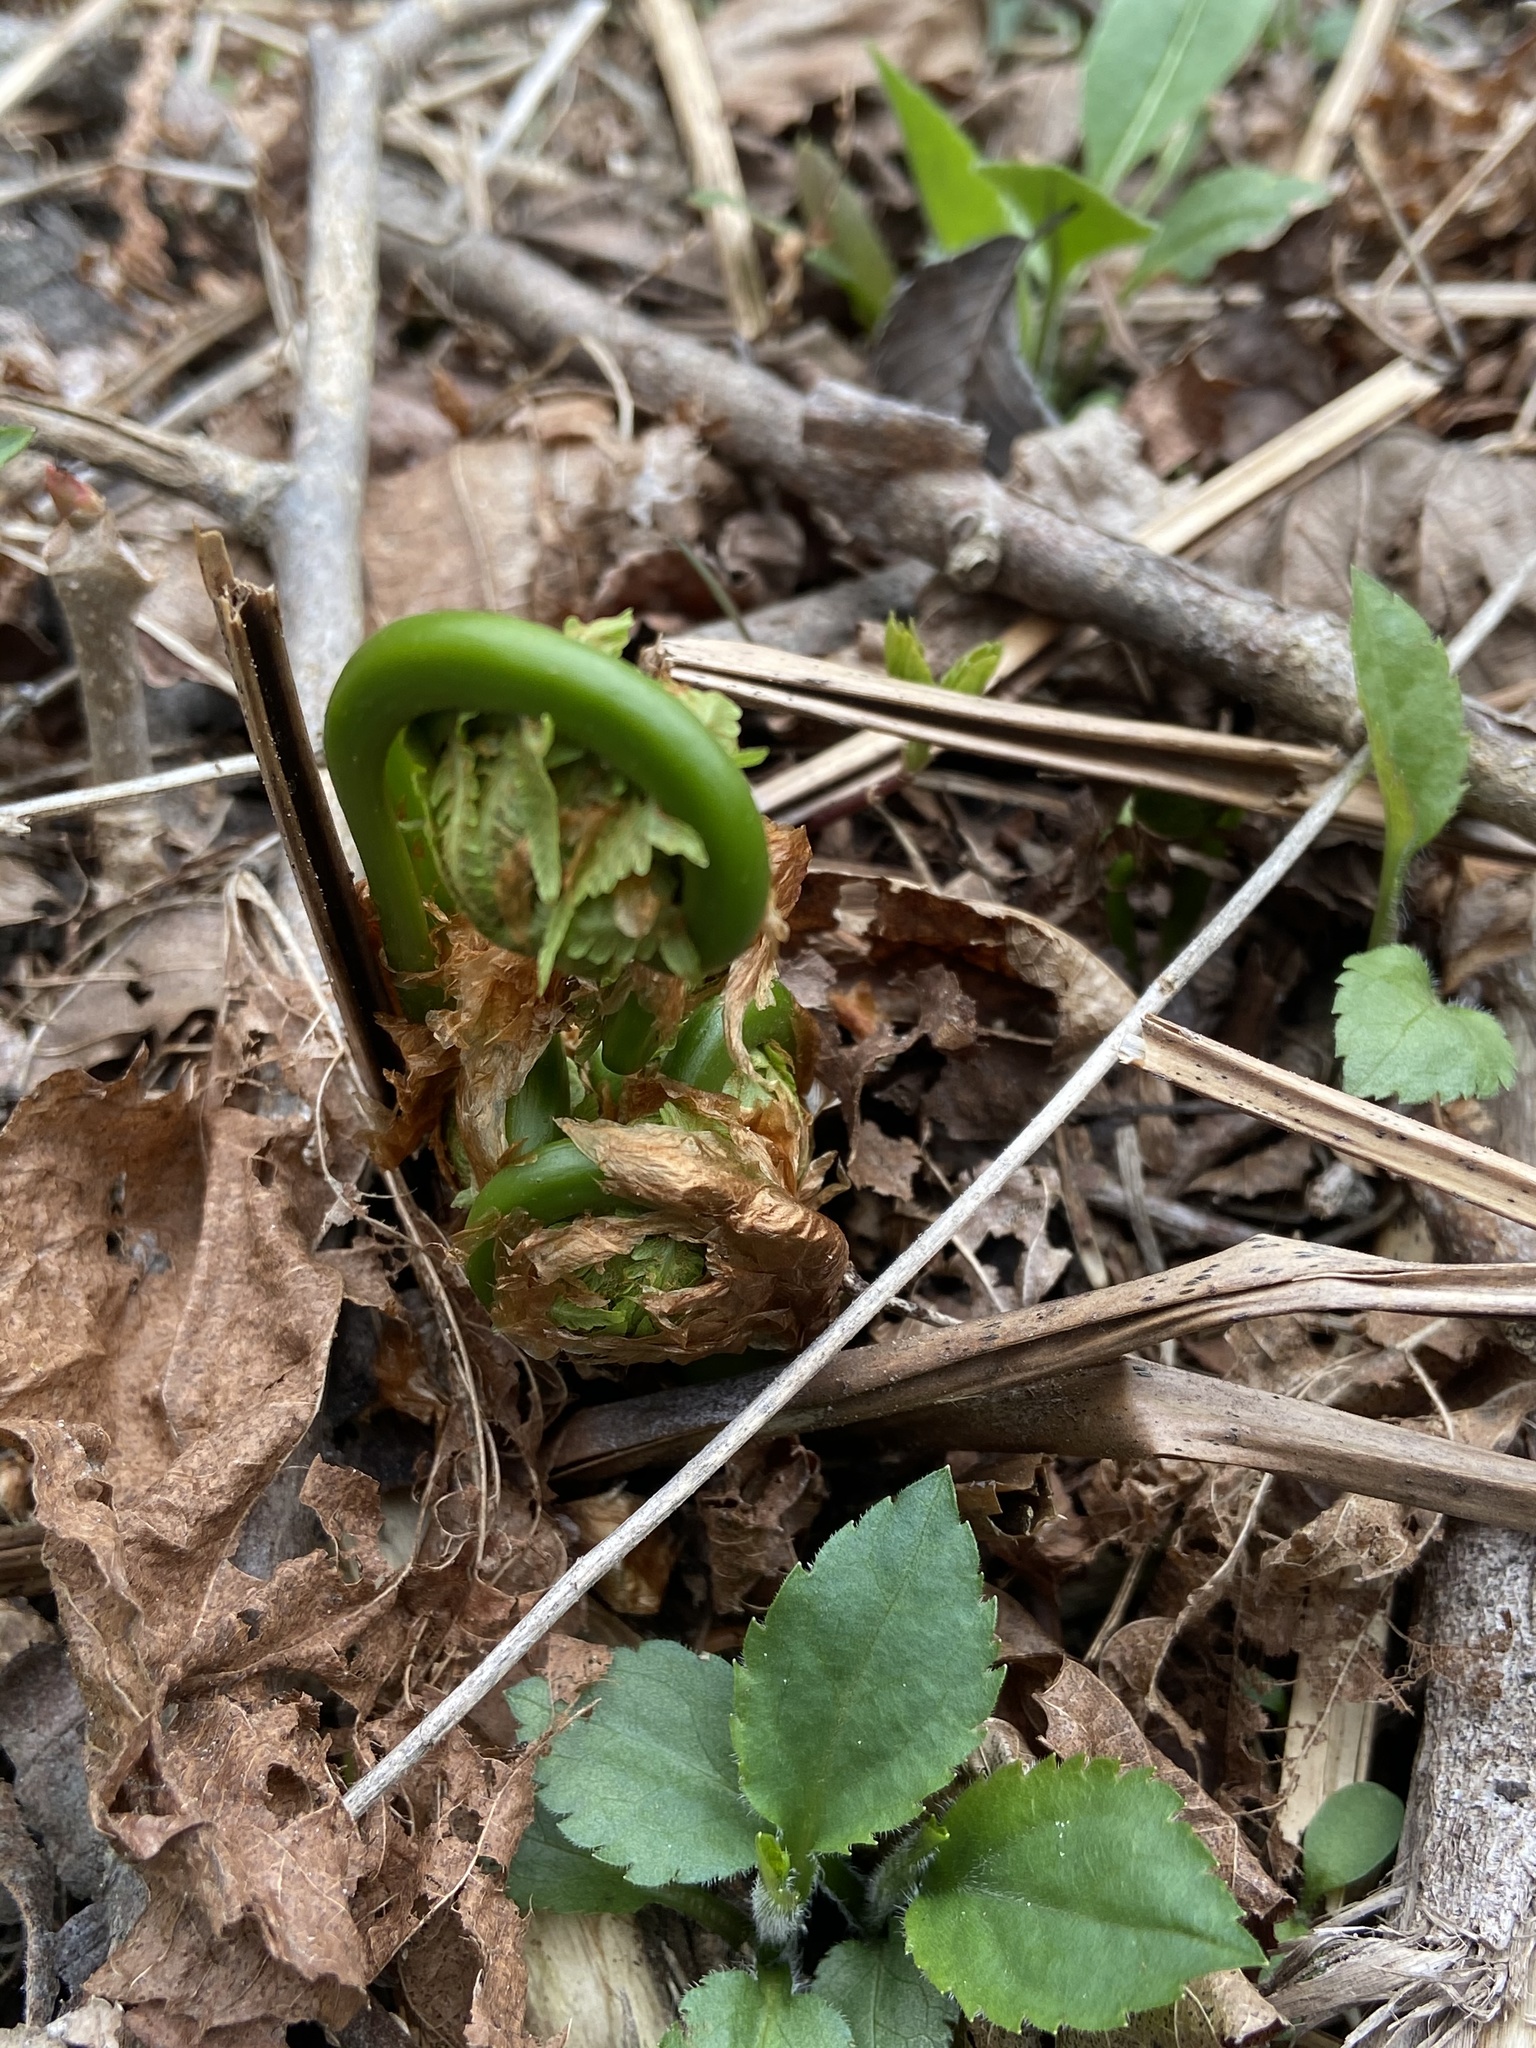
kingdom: Plantae
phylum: Tracheophyta
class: Polypodiopsida
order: Polypodiales
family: Onocleaceae
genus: Matteuccia
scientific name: Matteuccia struthiopteris
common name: Ostrich fern
